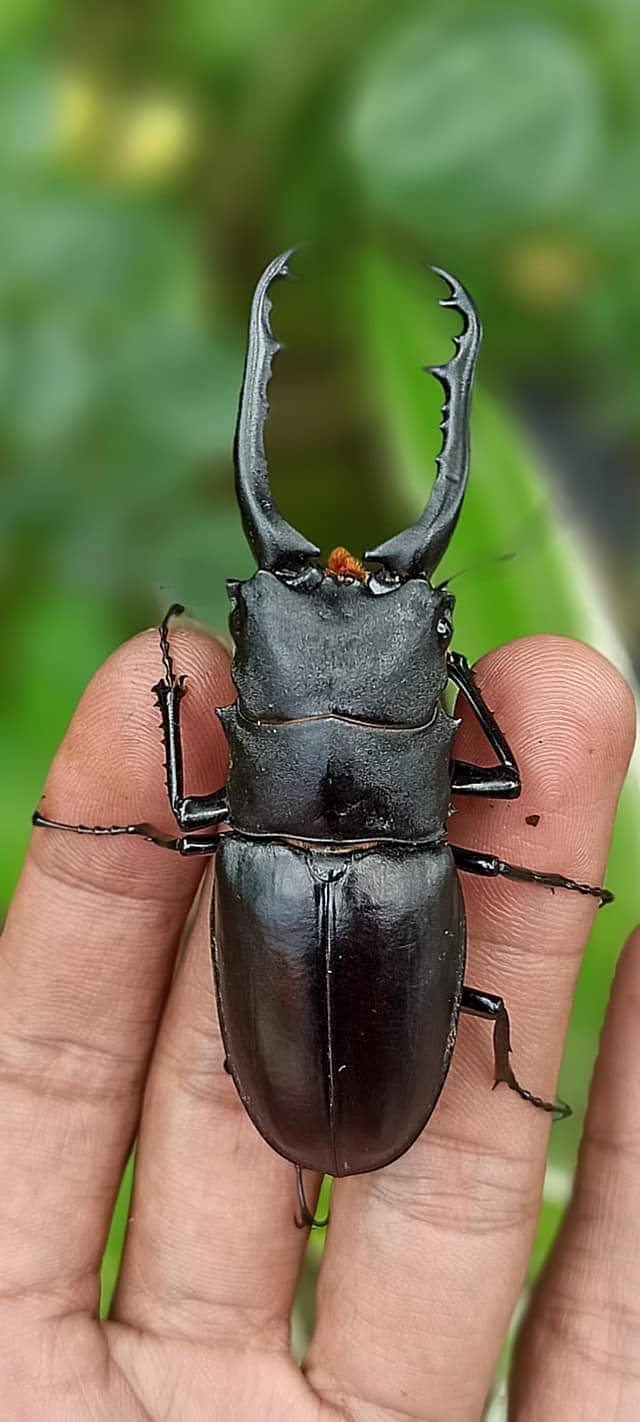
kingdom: Animalia
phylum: Arthropoda
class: Insecta
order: Coleoptera
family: Lucanidae
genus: Prosopocoilus
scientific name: Prosopocoilus girafa
